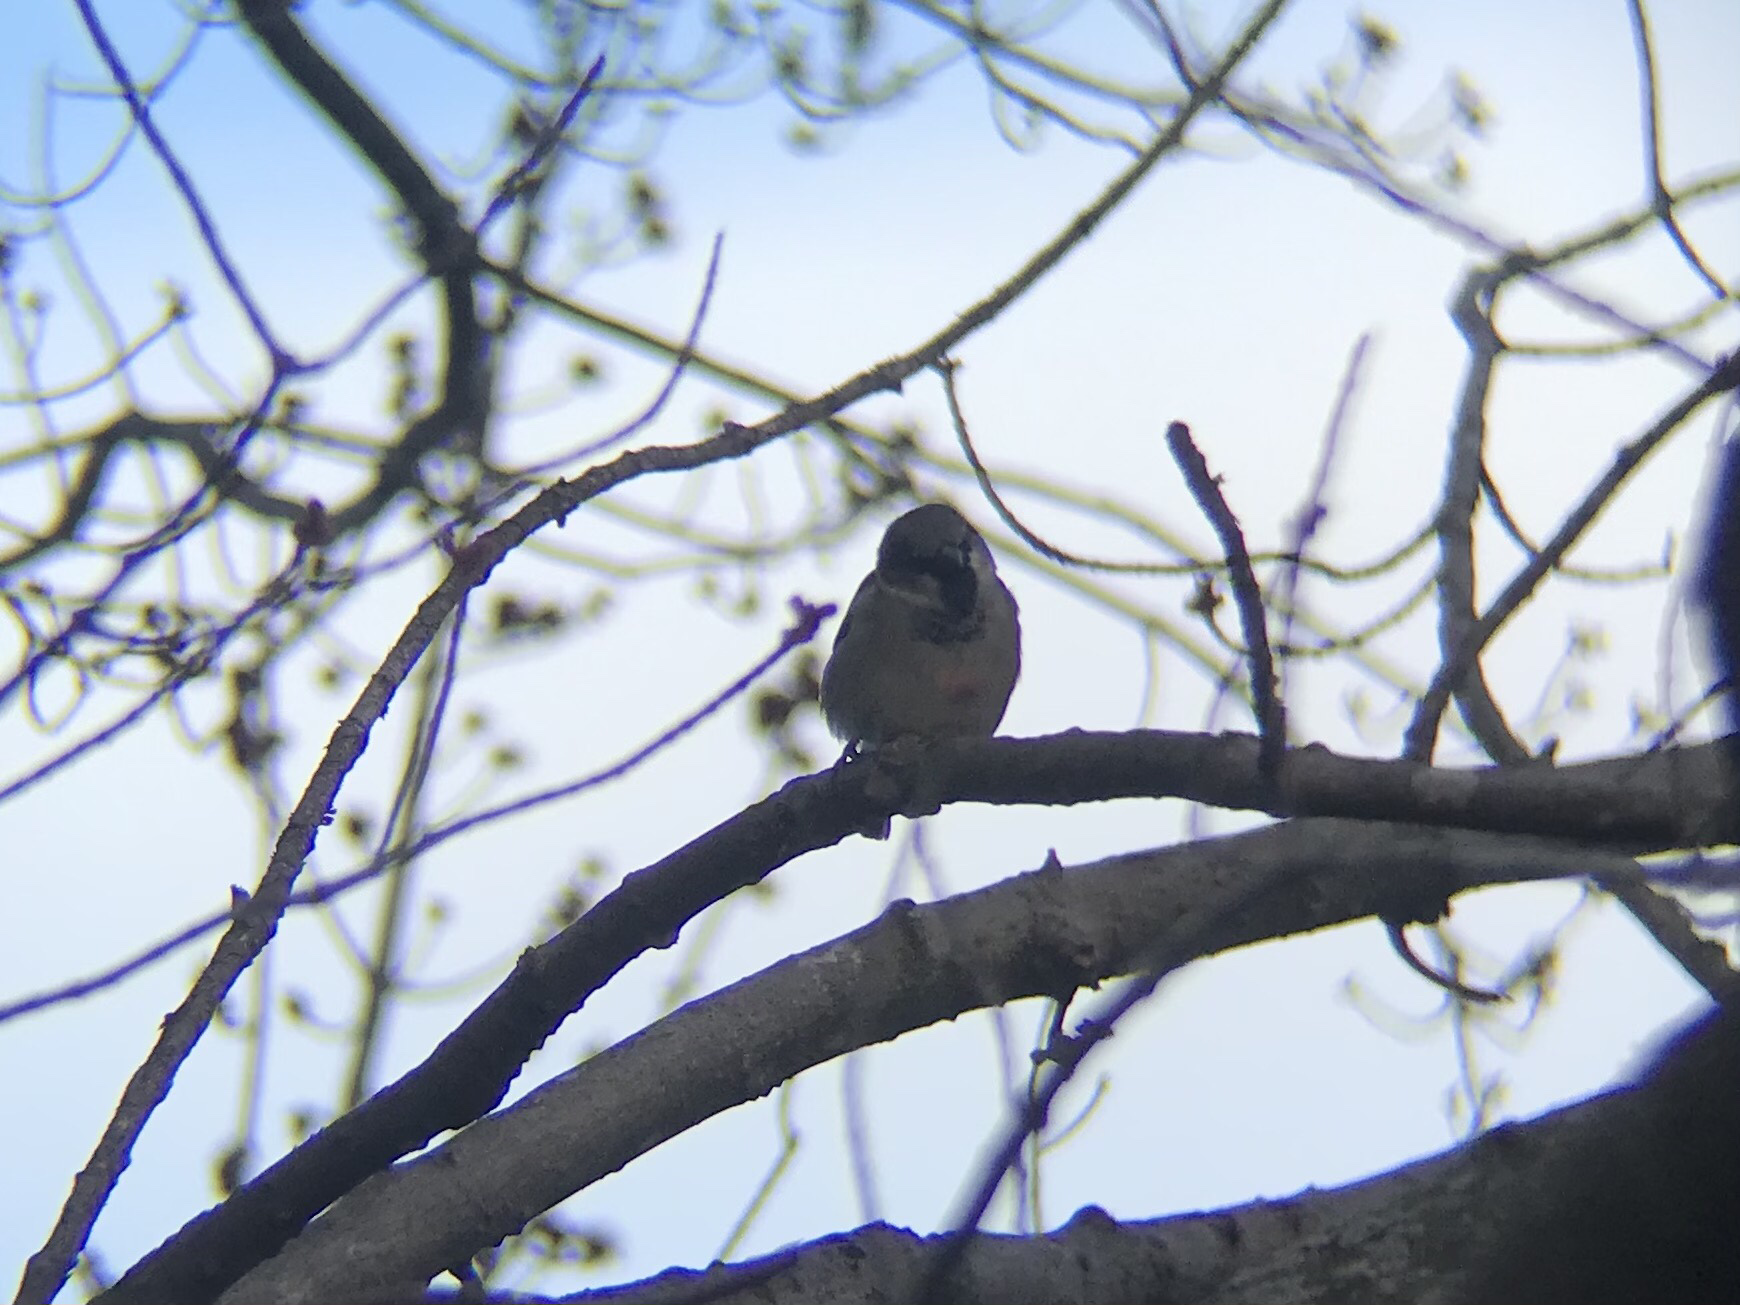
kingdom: Animalia
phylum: Chordata
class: Aves
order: Passeriformes
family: Passeridae
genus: Passer
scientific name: Passer domesticus
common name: House sparrow
